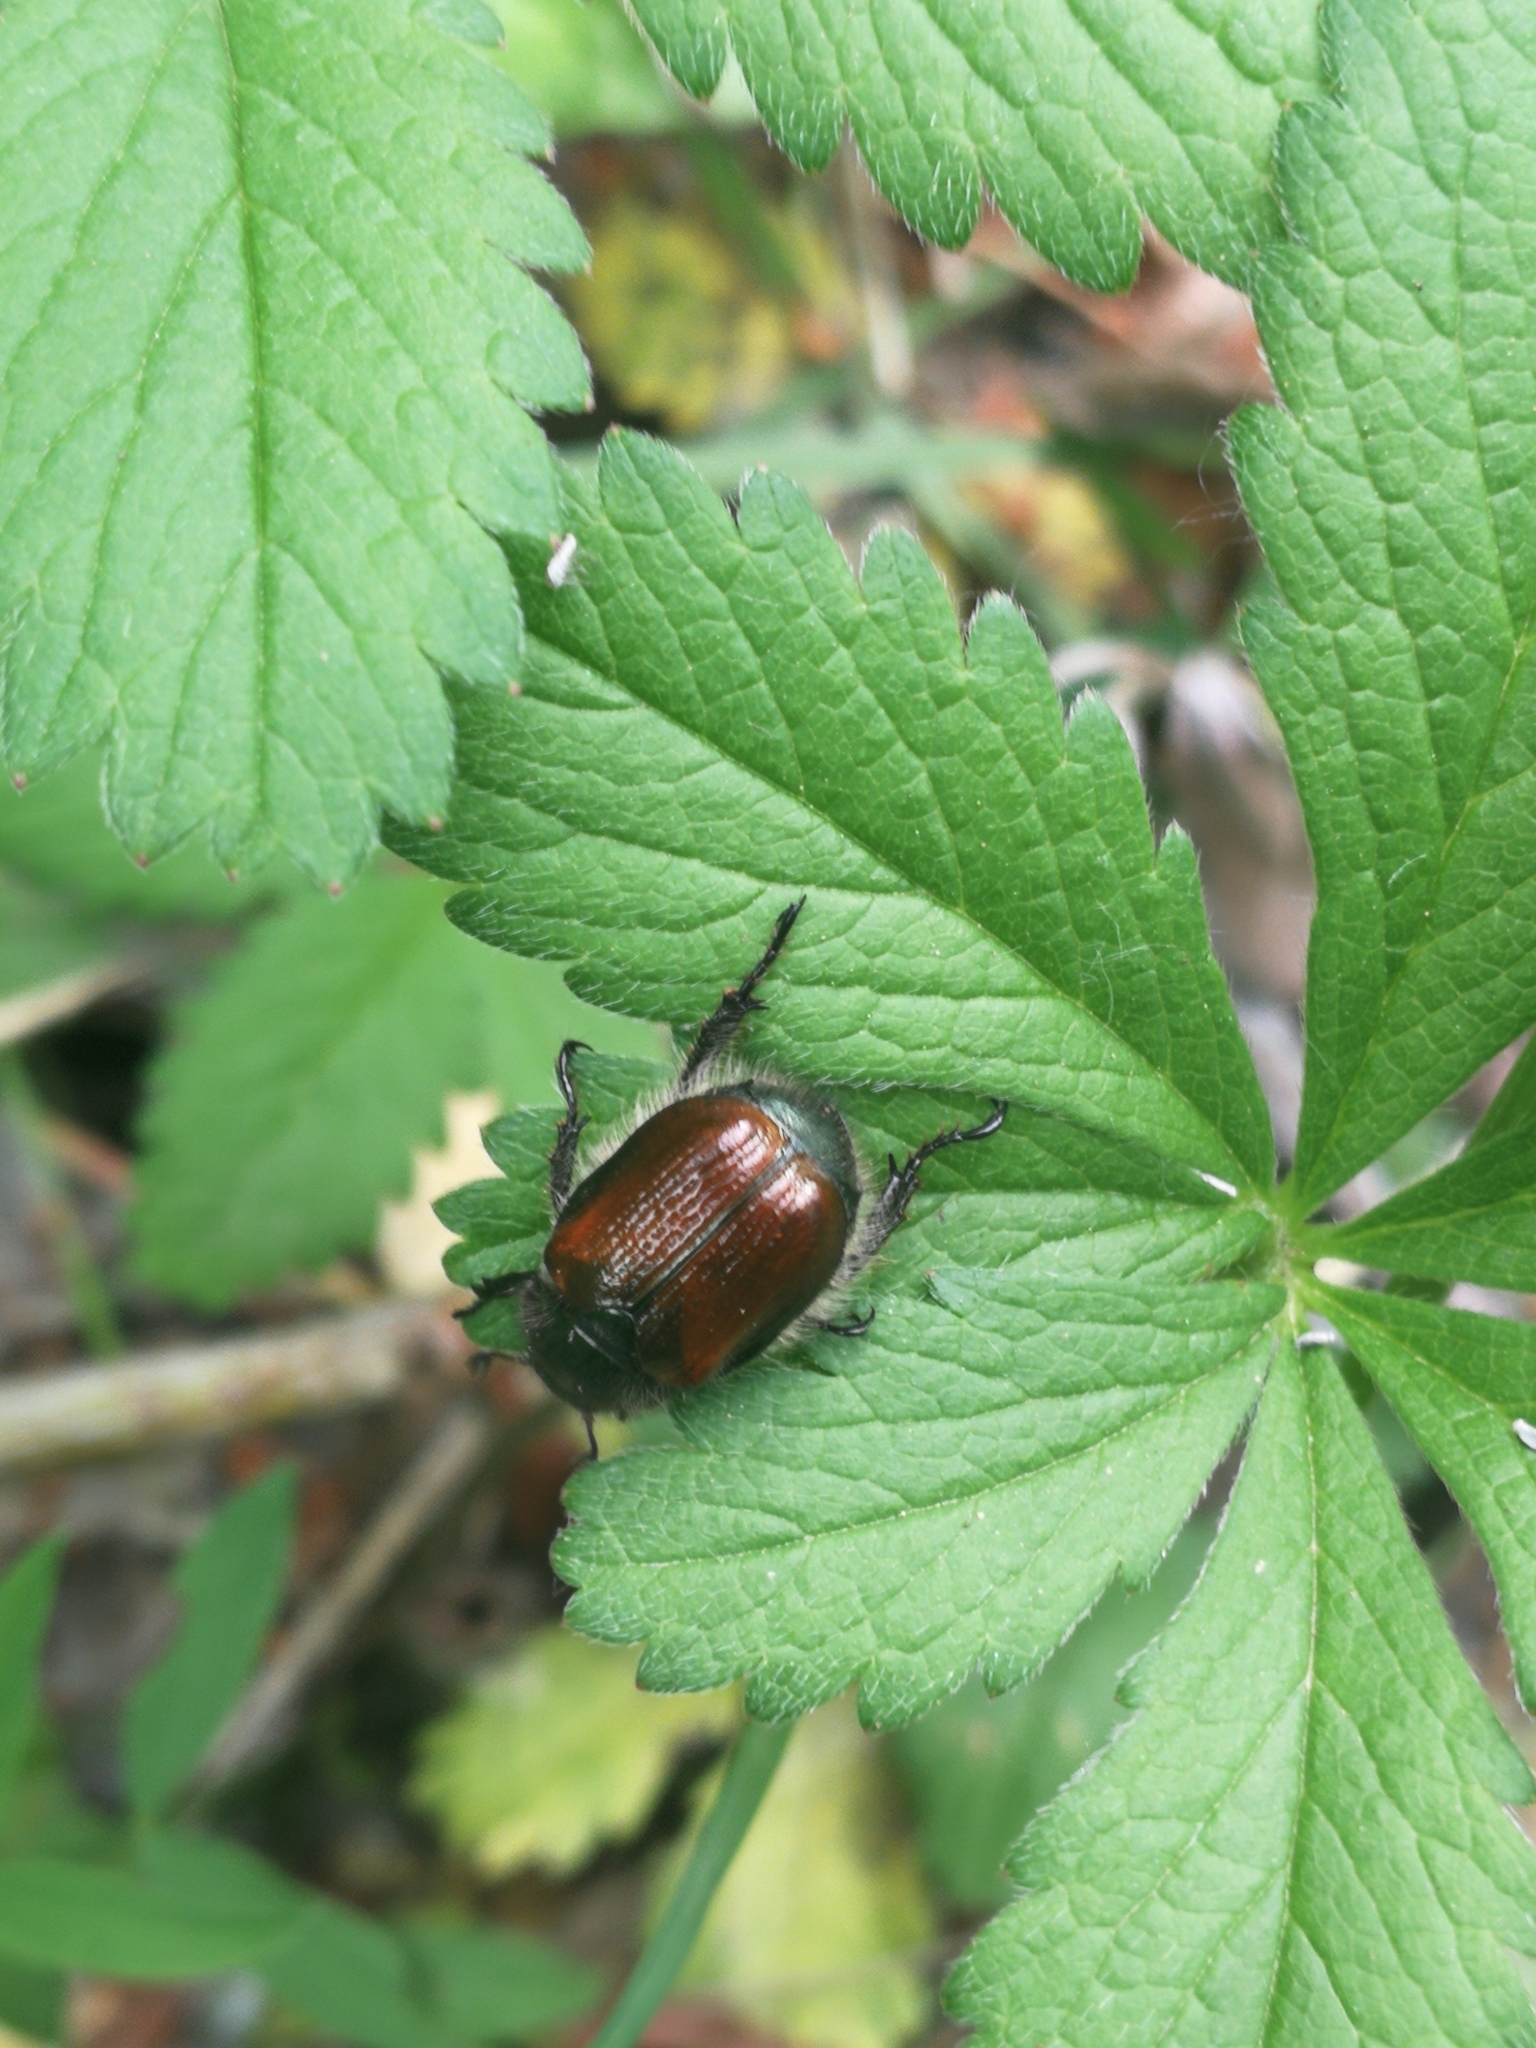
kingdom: Animalia
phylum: Arthropoda
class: Insecta
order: Coleoptera
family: Scarabaeidae
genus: Phyllopertha
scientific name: Phyllopertha horticola
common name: Garden chafer
